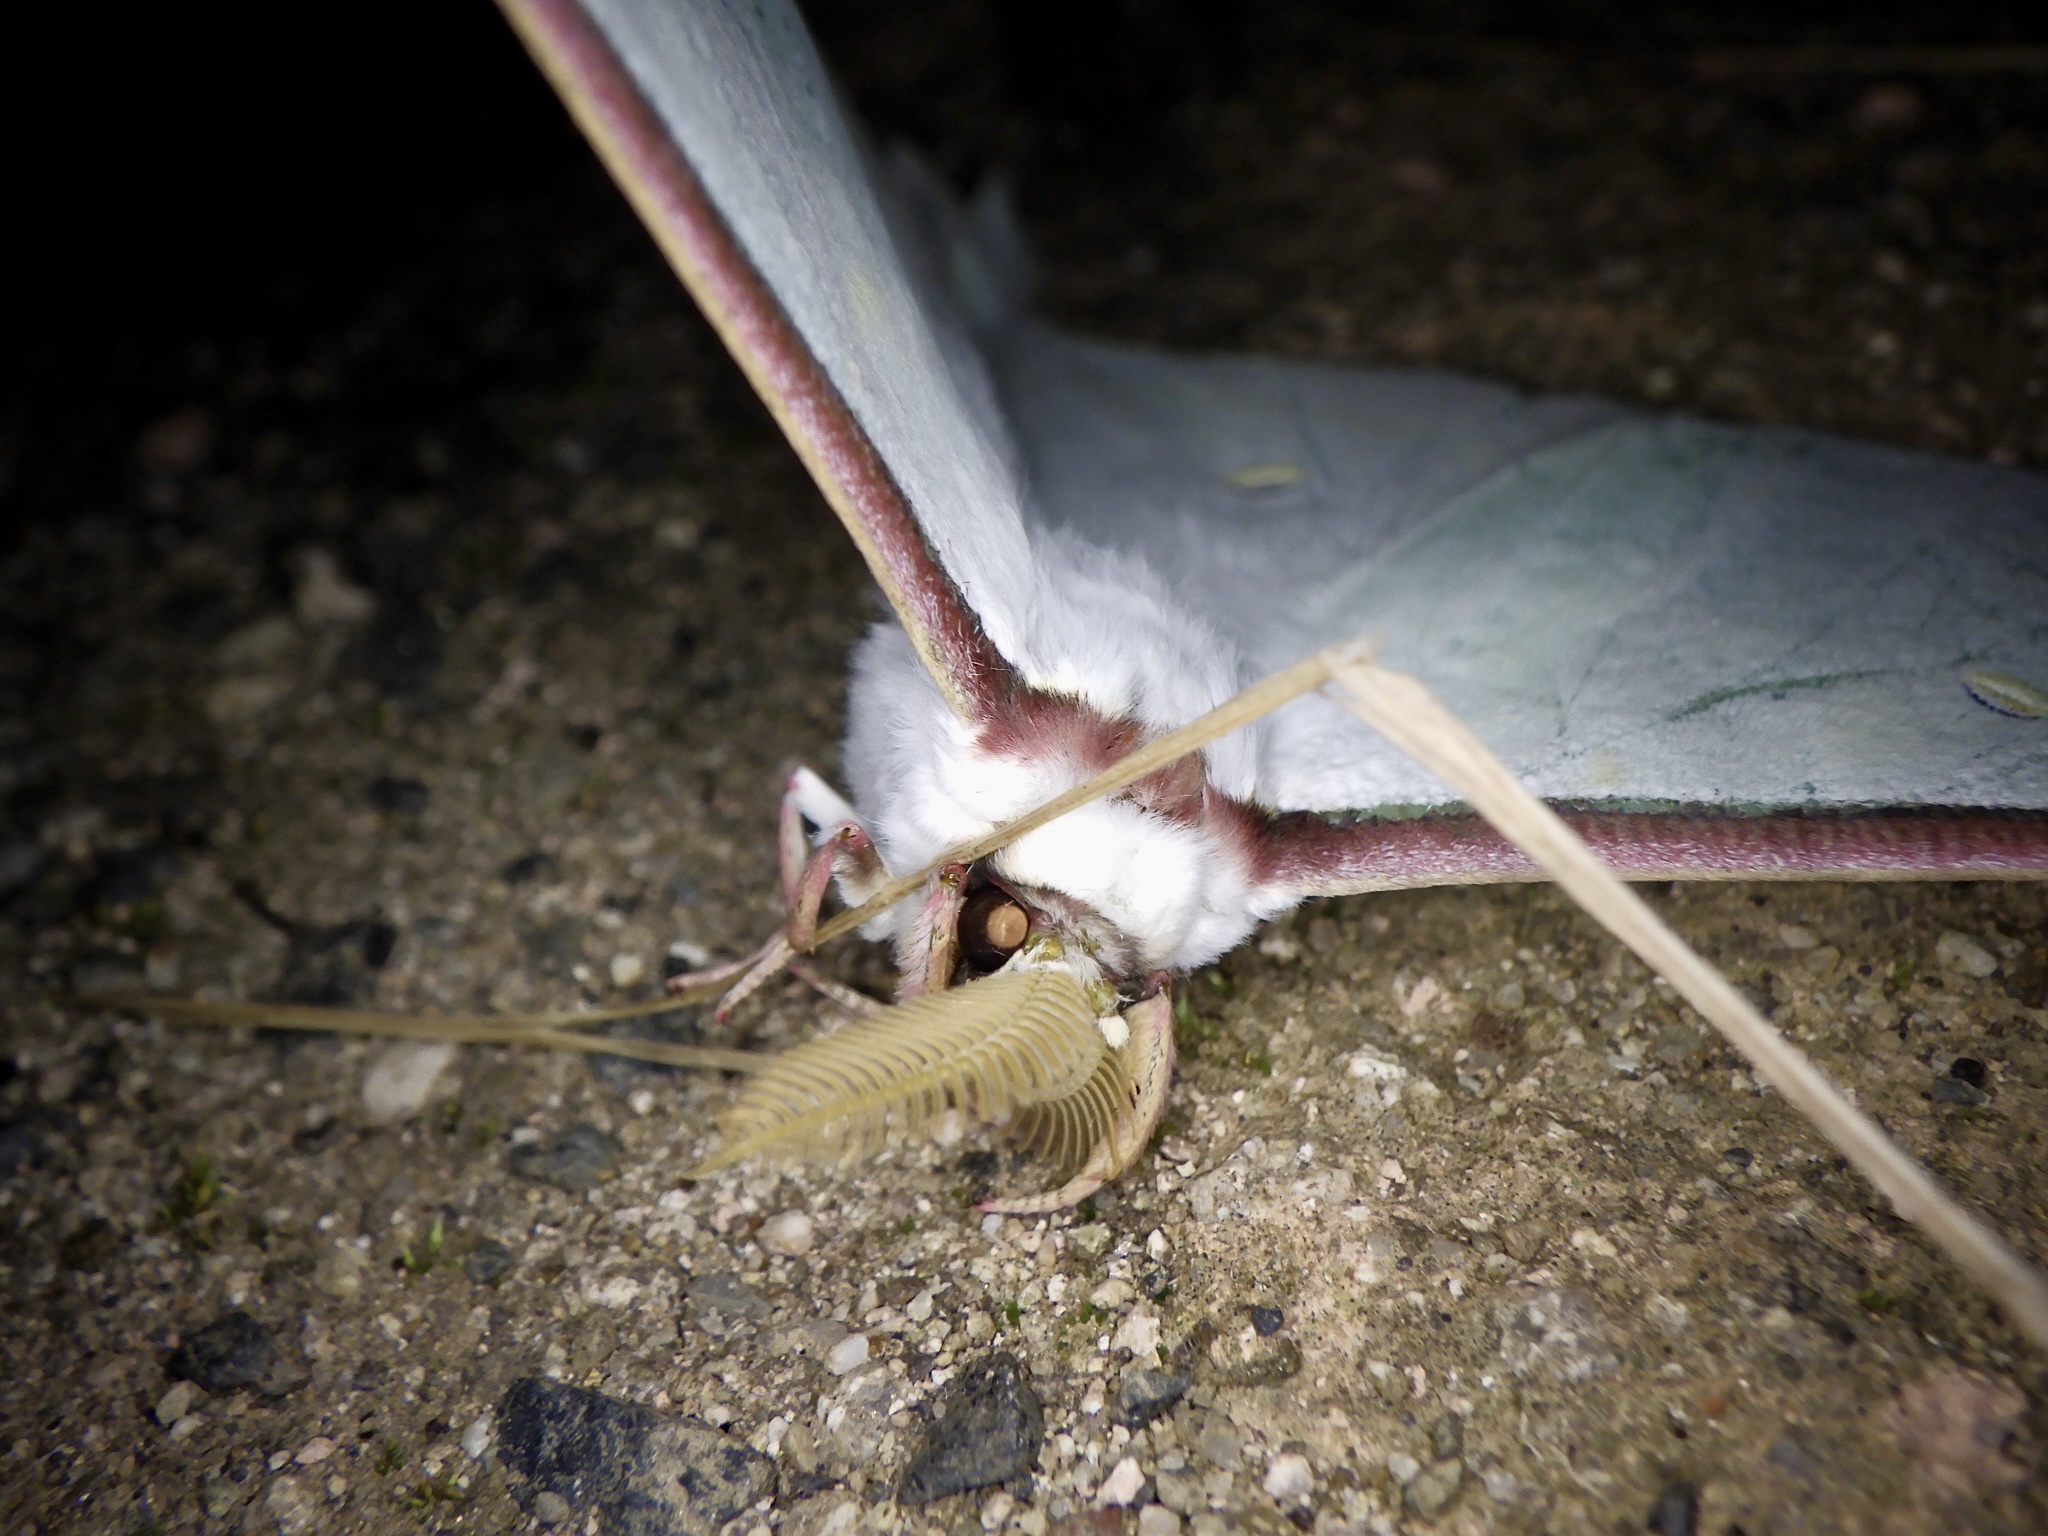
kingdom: Animalia
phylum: Arthropoda
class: Insecta
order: Lepidoptera
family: Saturniidae
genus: Actias
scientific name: Actias aliena
